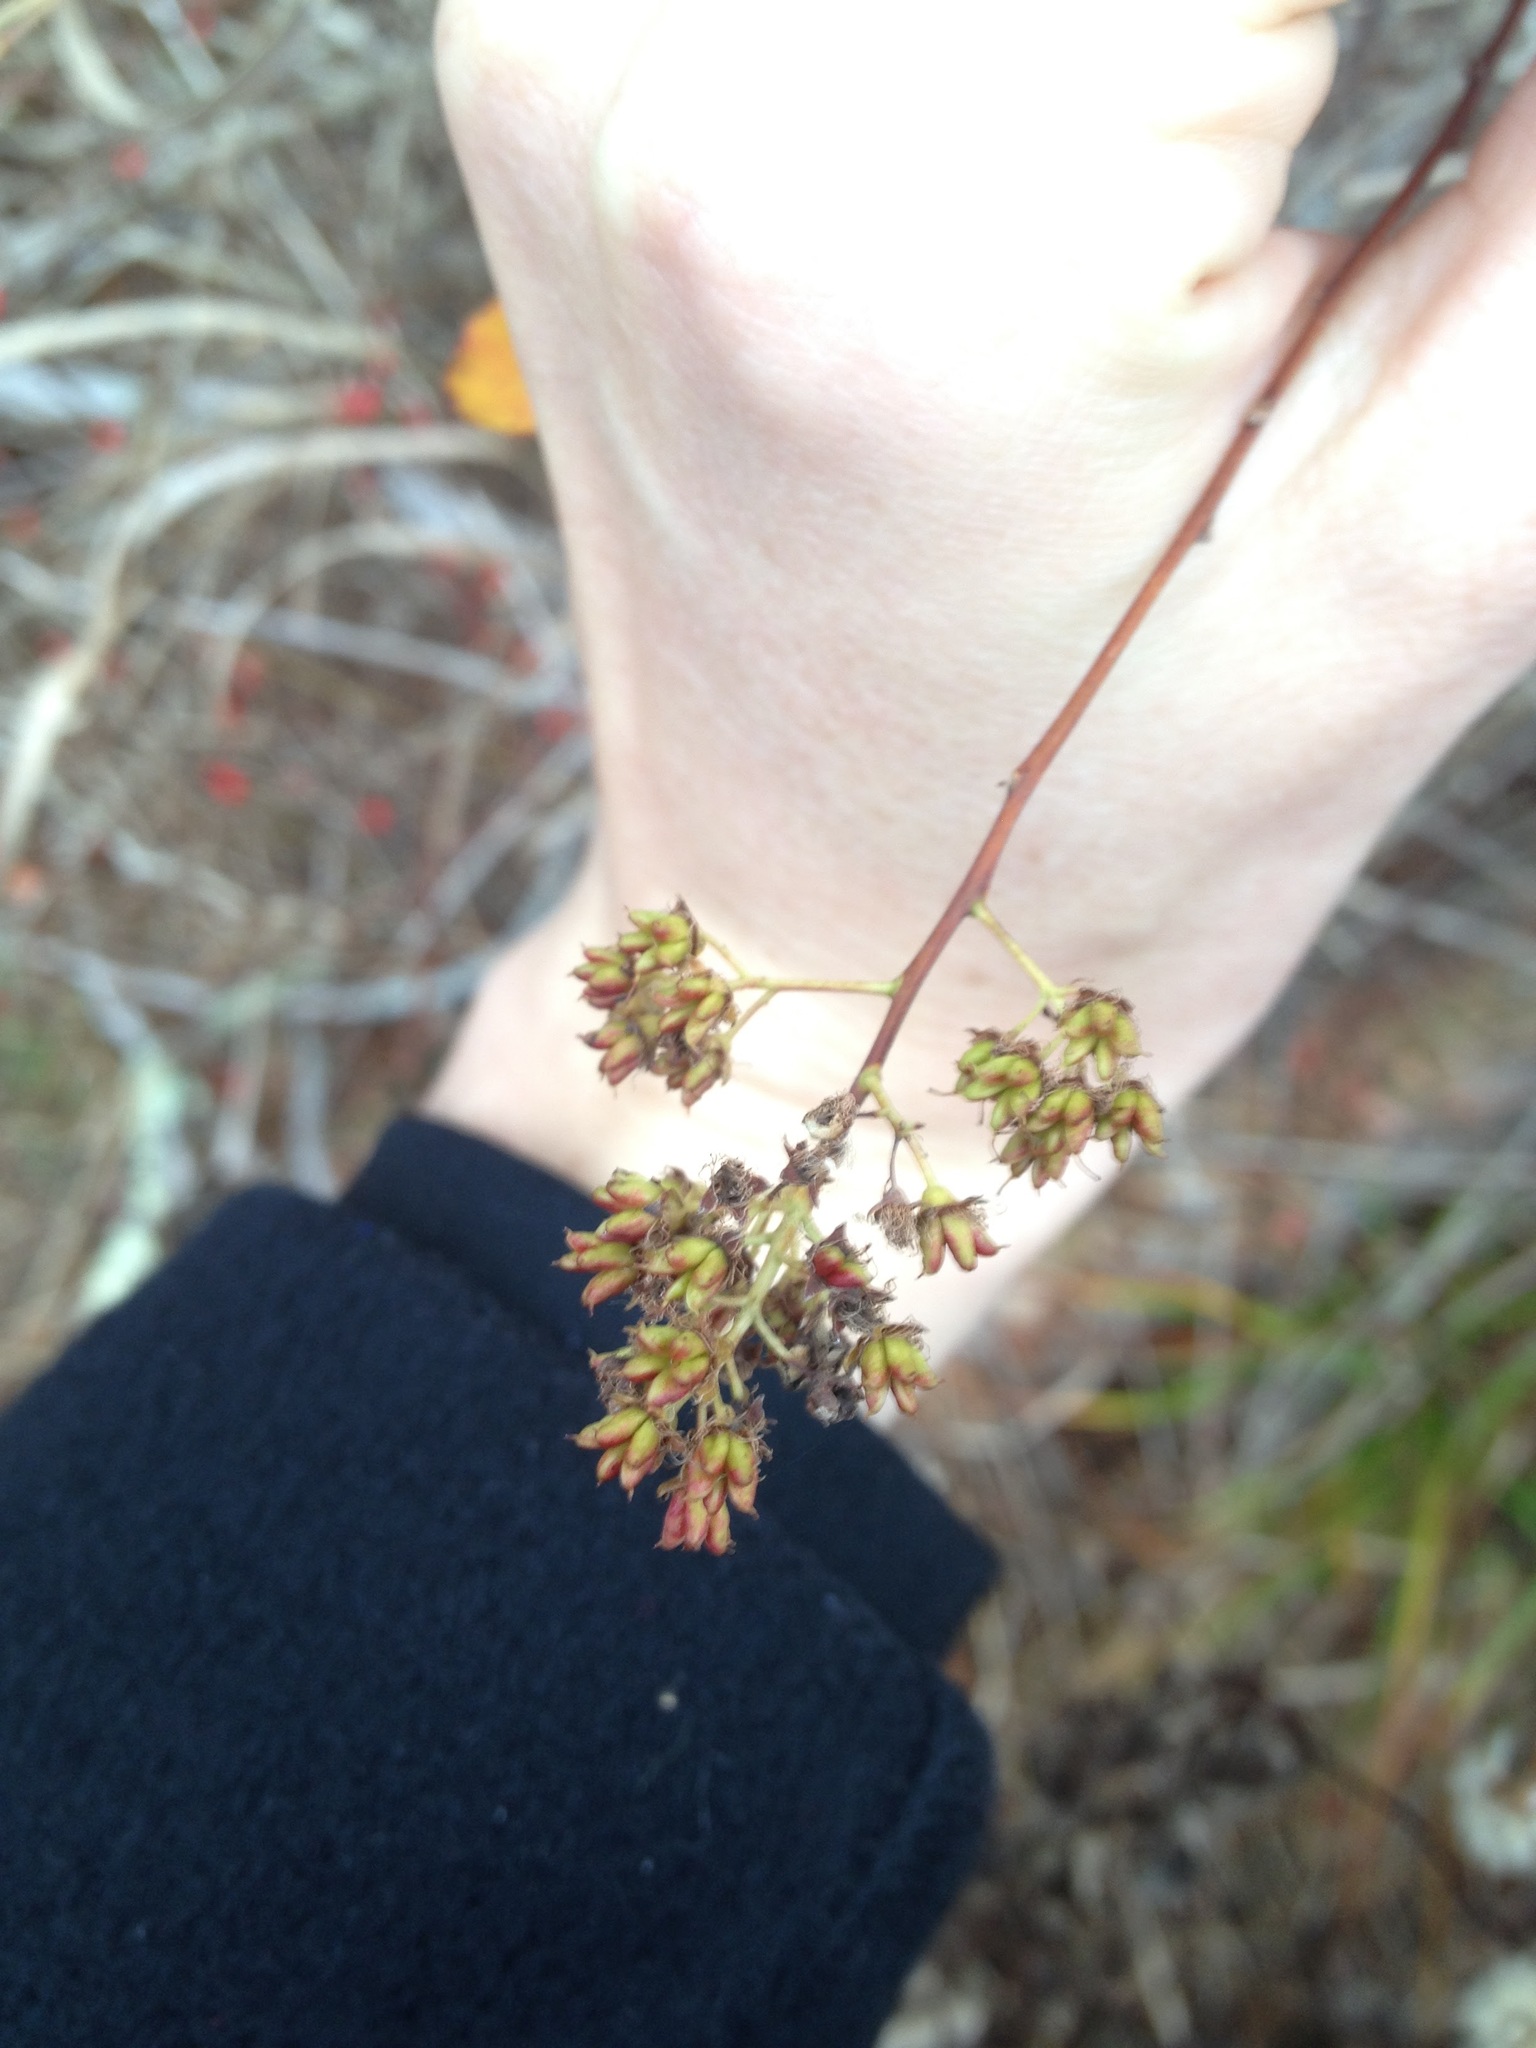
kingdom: Plantae
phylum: Tracheophyta
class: Magnoliopsida
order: Rosales
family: Rosaceae
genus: Spiraea
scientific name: Spiraea alba
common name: Pale bridewort
